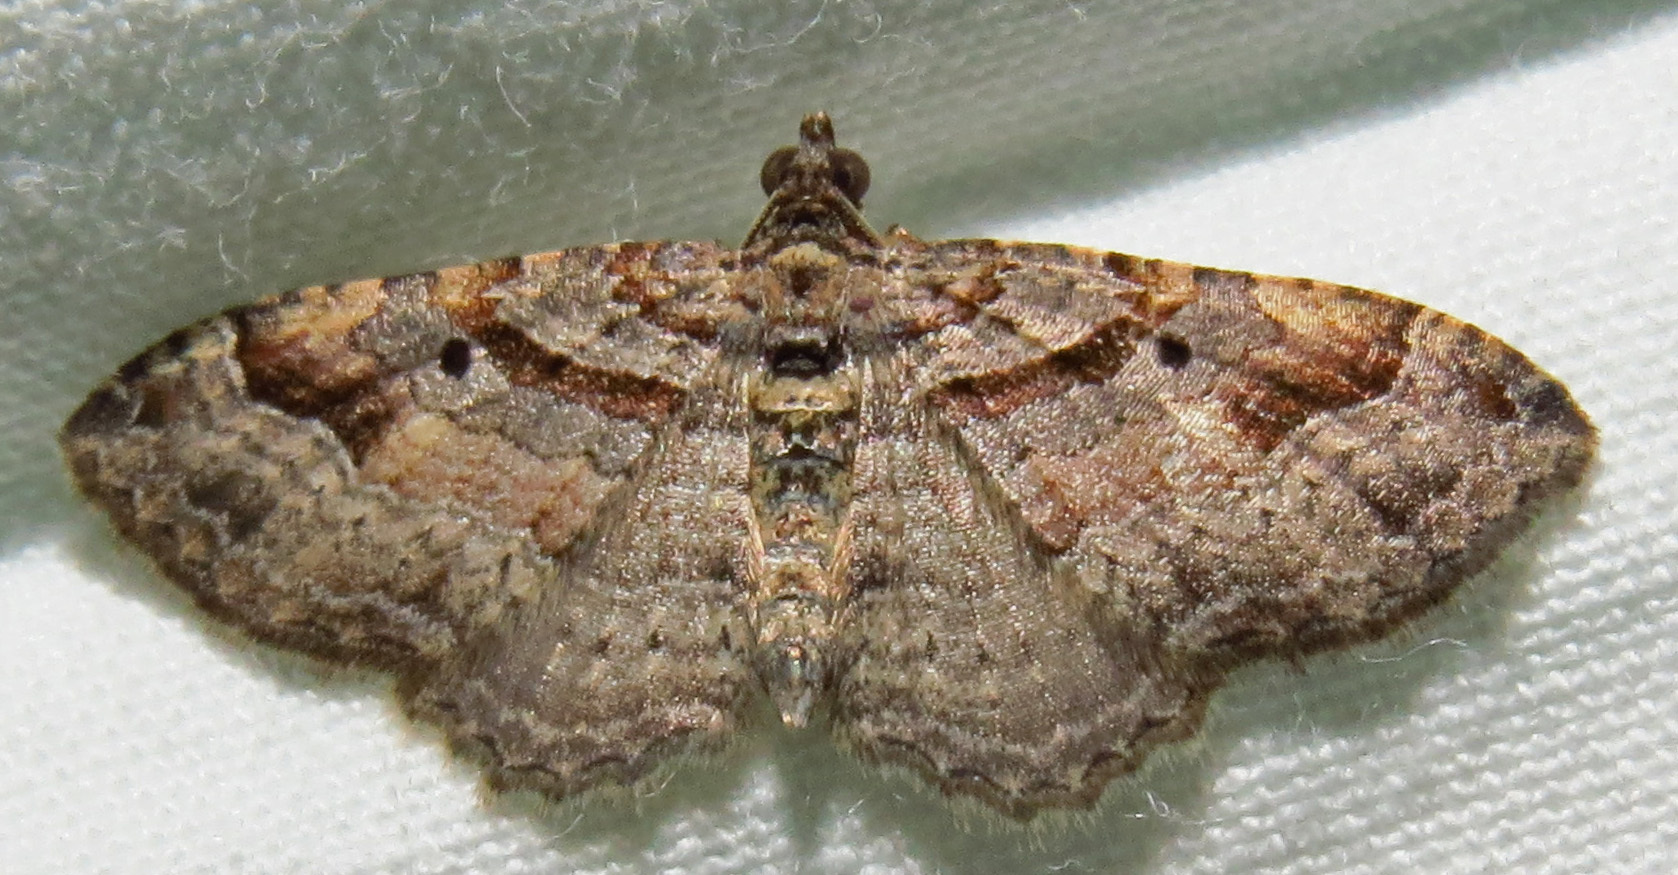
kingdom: Animalia
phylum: Arthropoda
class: Insecta
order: Lepidoptera
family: Geometridae
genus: Costaconvexa
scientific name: Costaconvexa centrostrigaria
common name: Bent-line carpet
